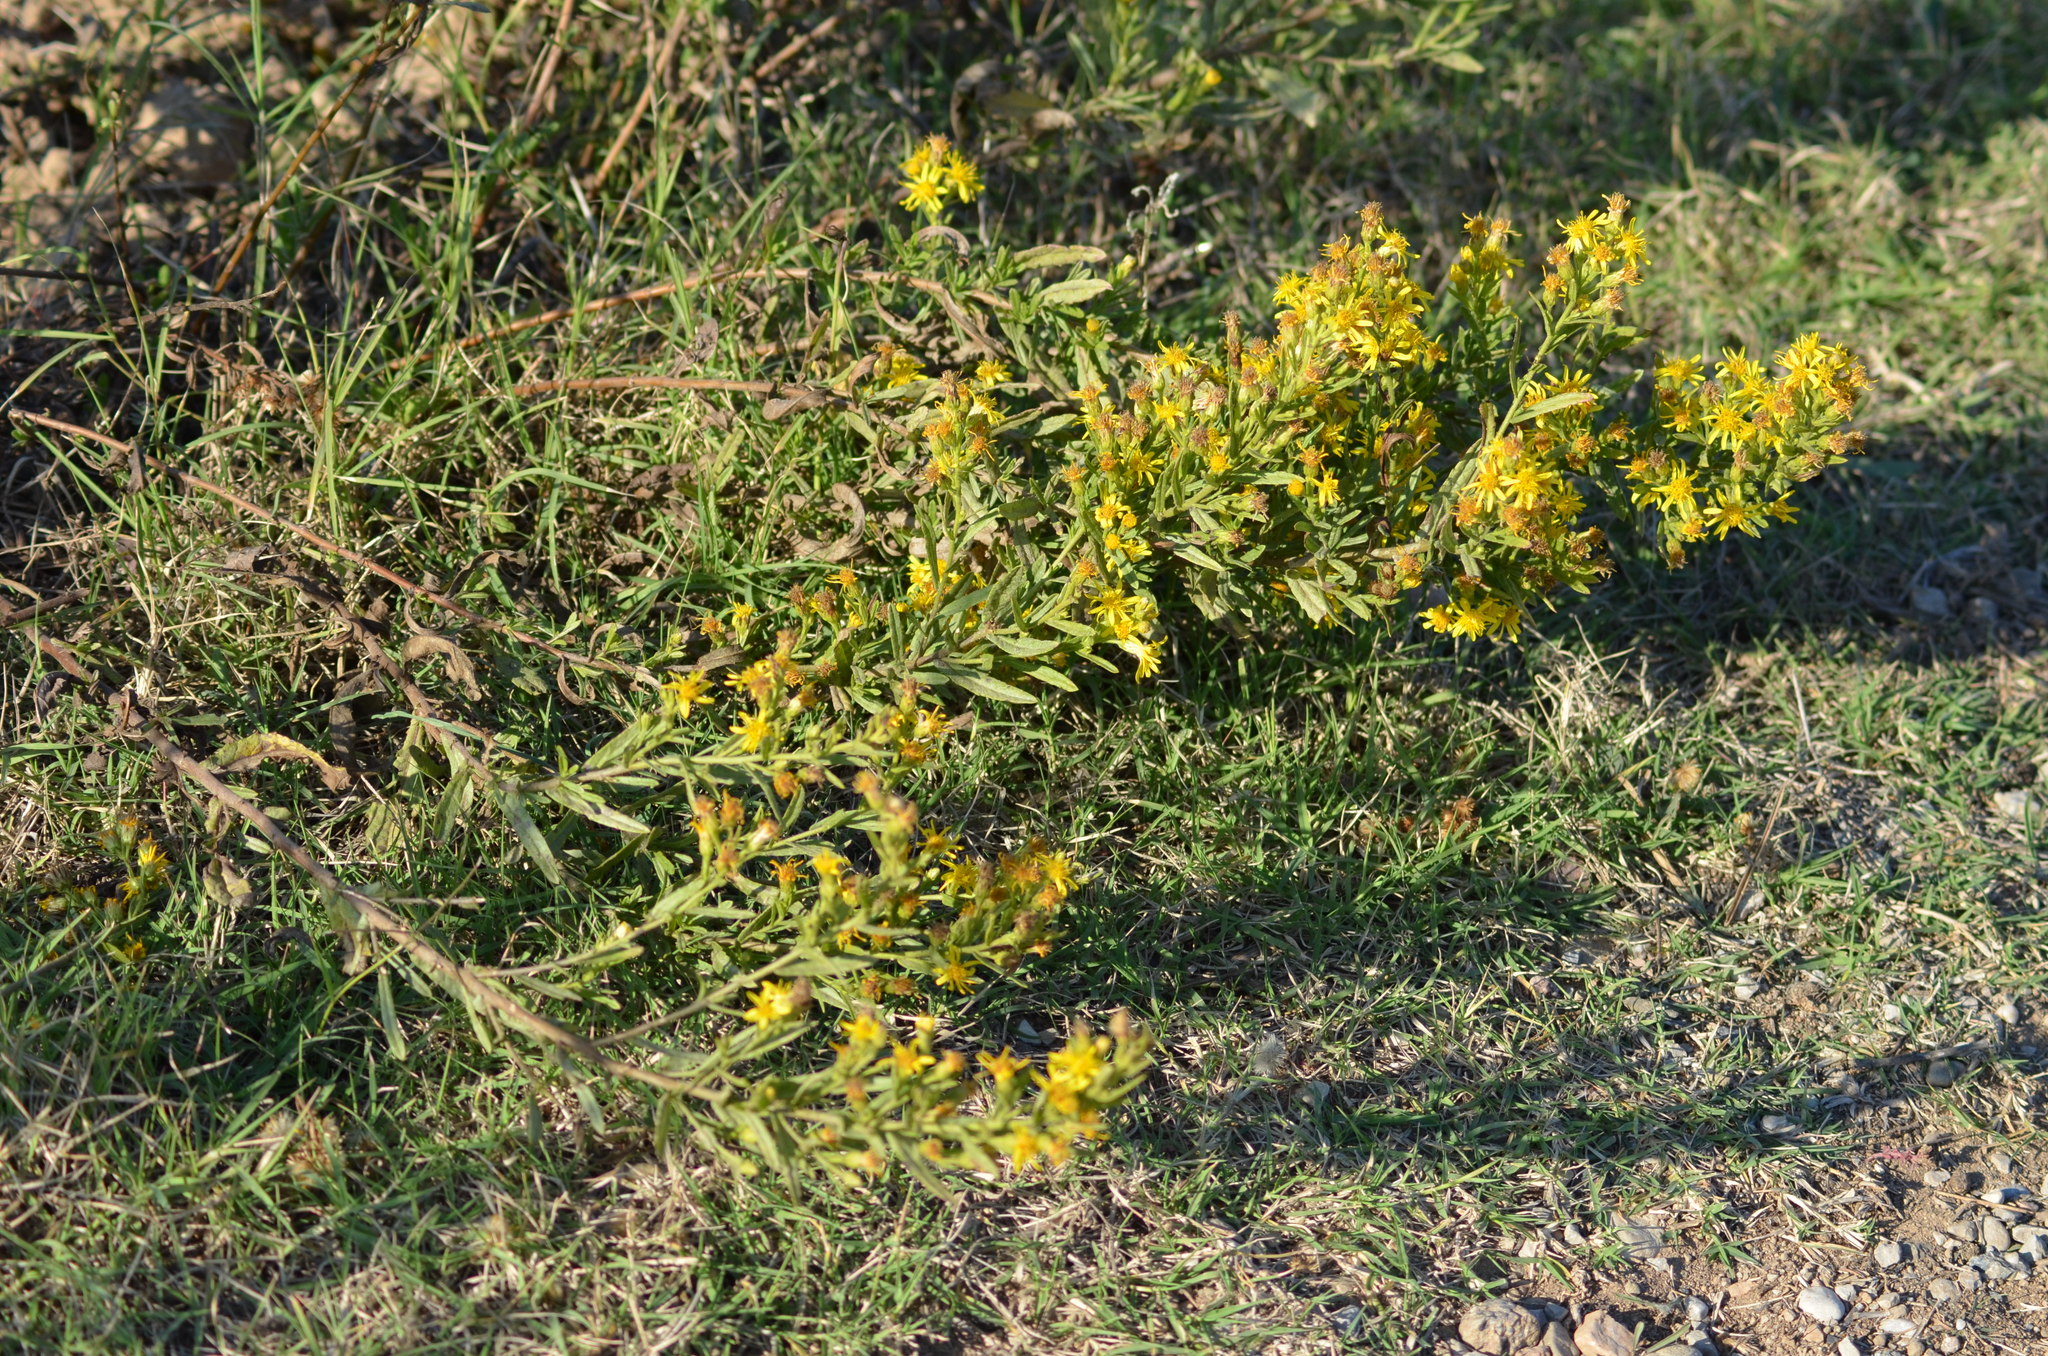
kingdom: Plantae
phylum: Tracheophyta
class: Magnoliopsida
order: Asterales
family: Asteraceae
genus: Dittrichia
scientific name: Dittrichia viscosa
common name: Woody fleabane
